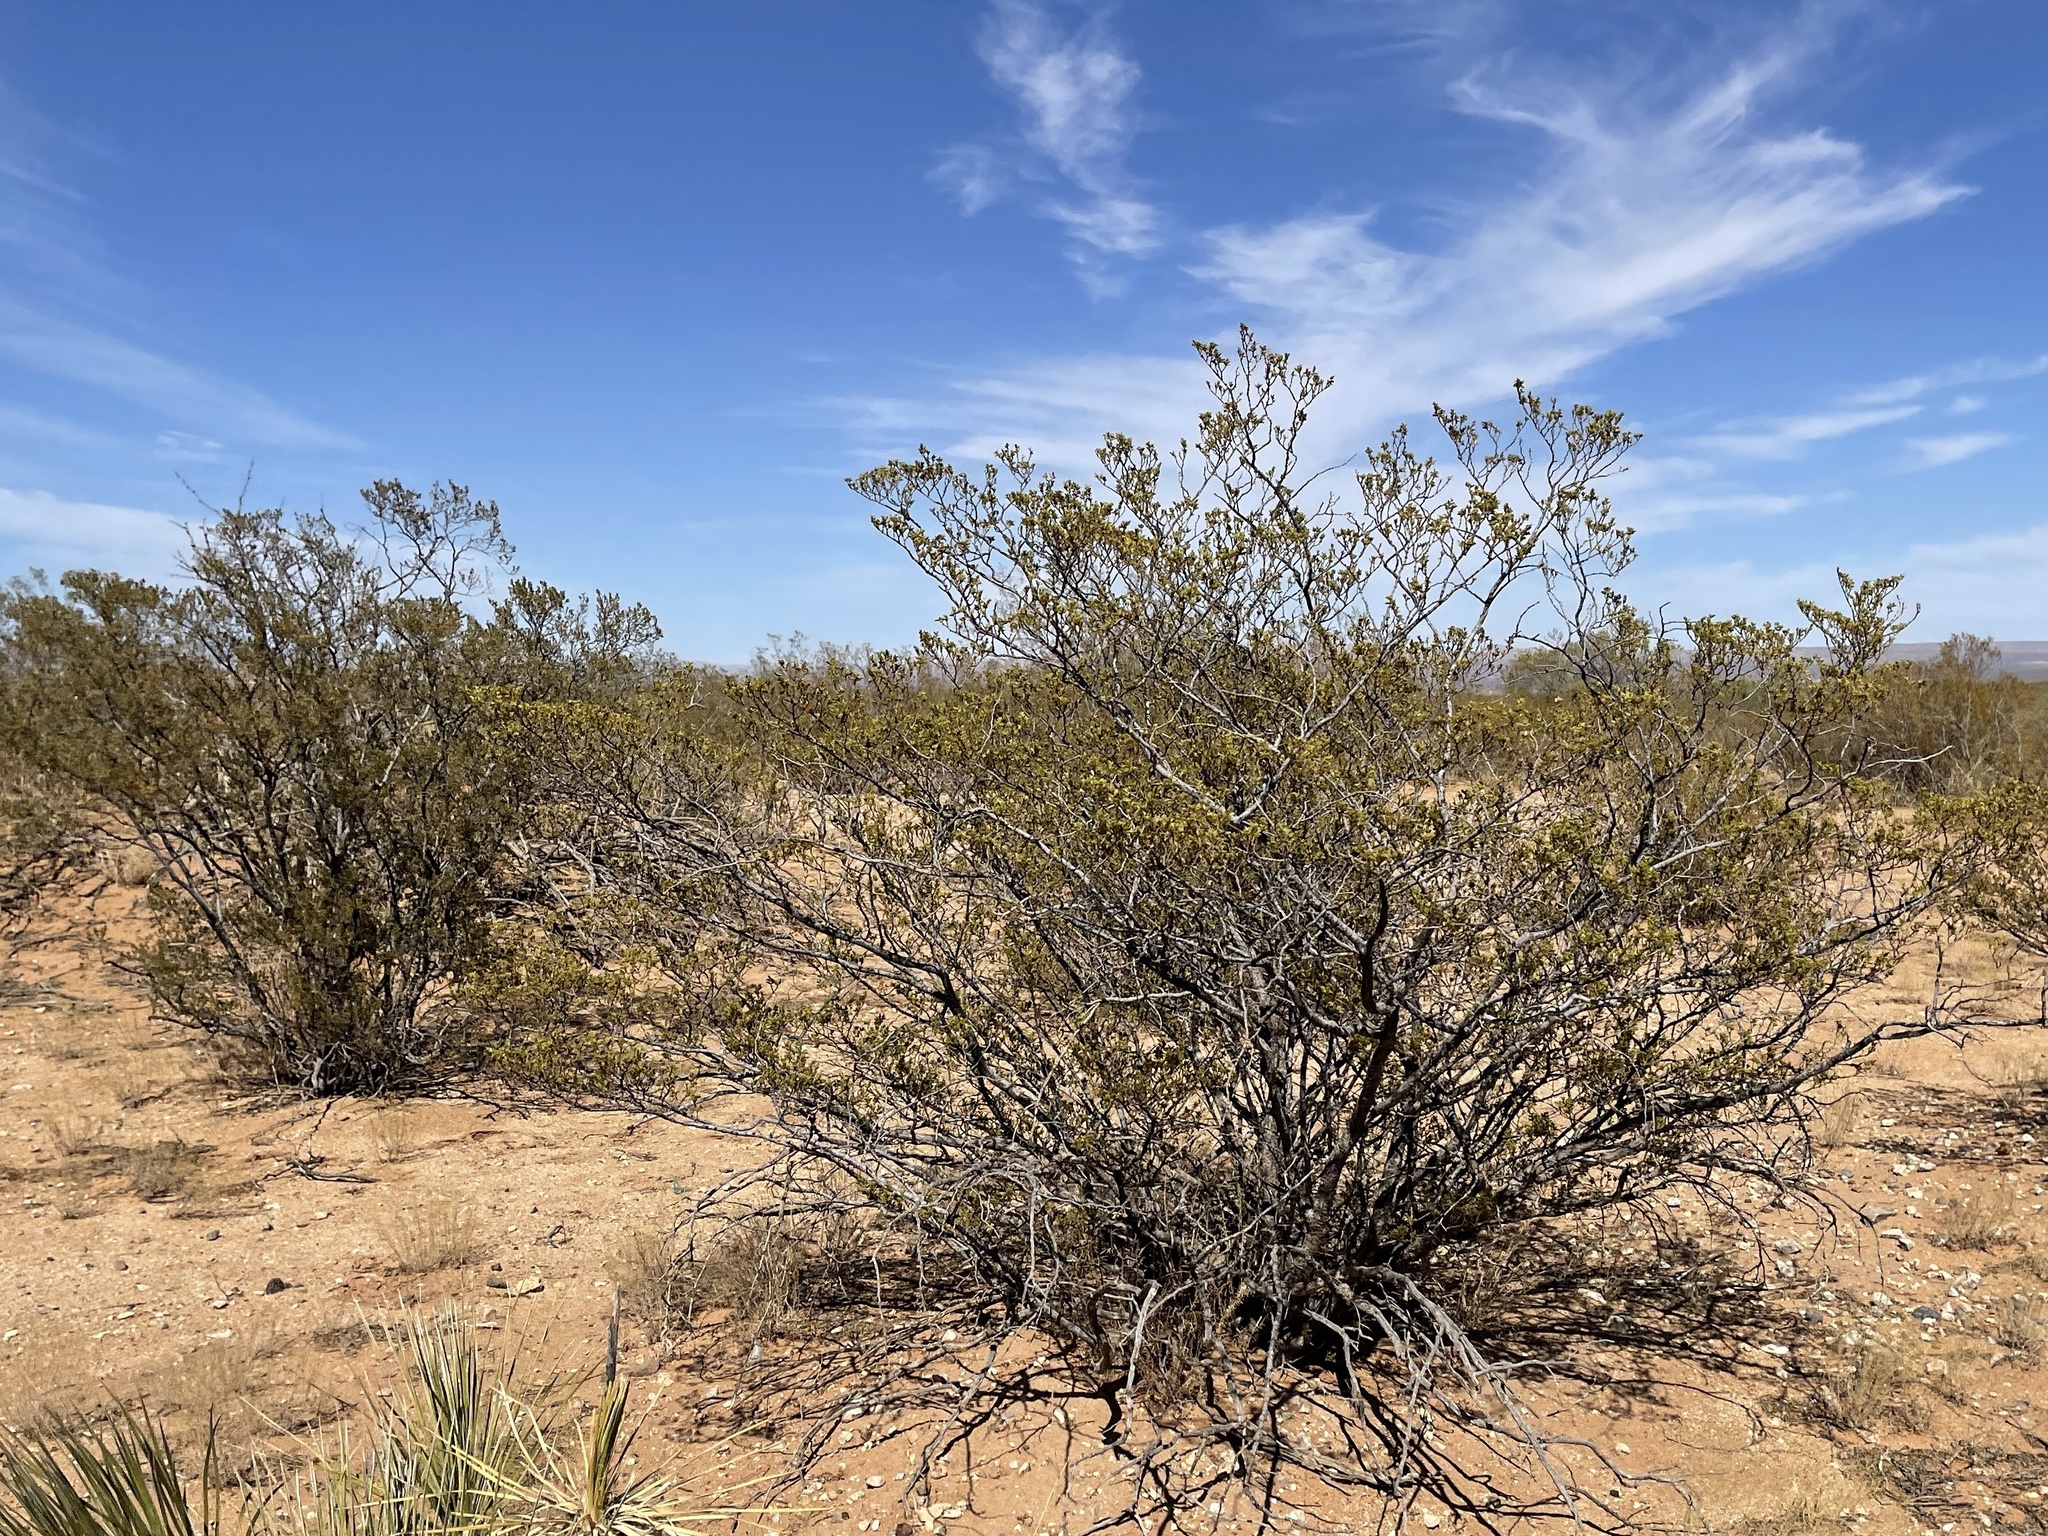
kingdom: Plantae
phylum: Tracheophyta
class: Magnoliopsida
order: Zygophyllales
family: Zygophyllaceae
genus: Larrea
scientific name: Larrea tridentata
